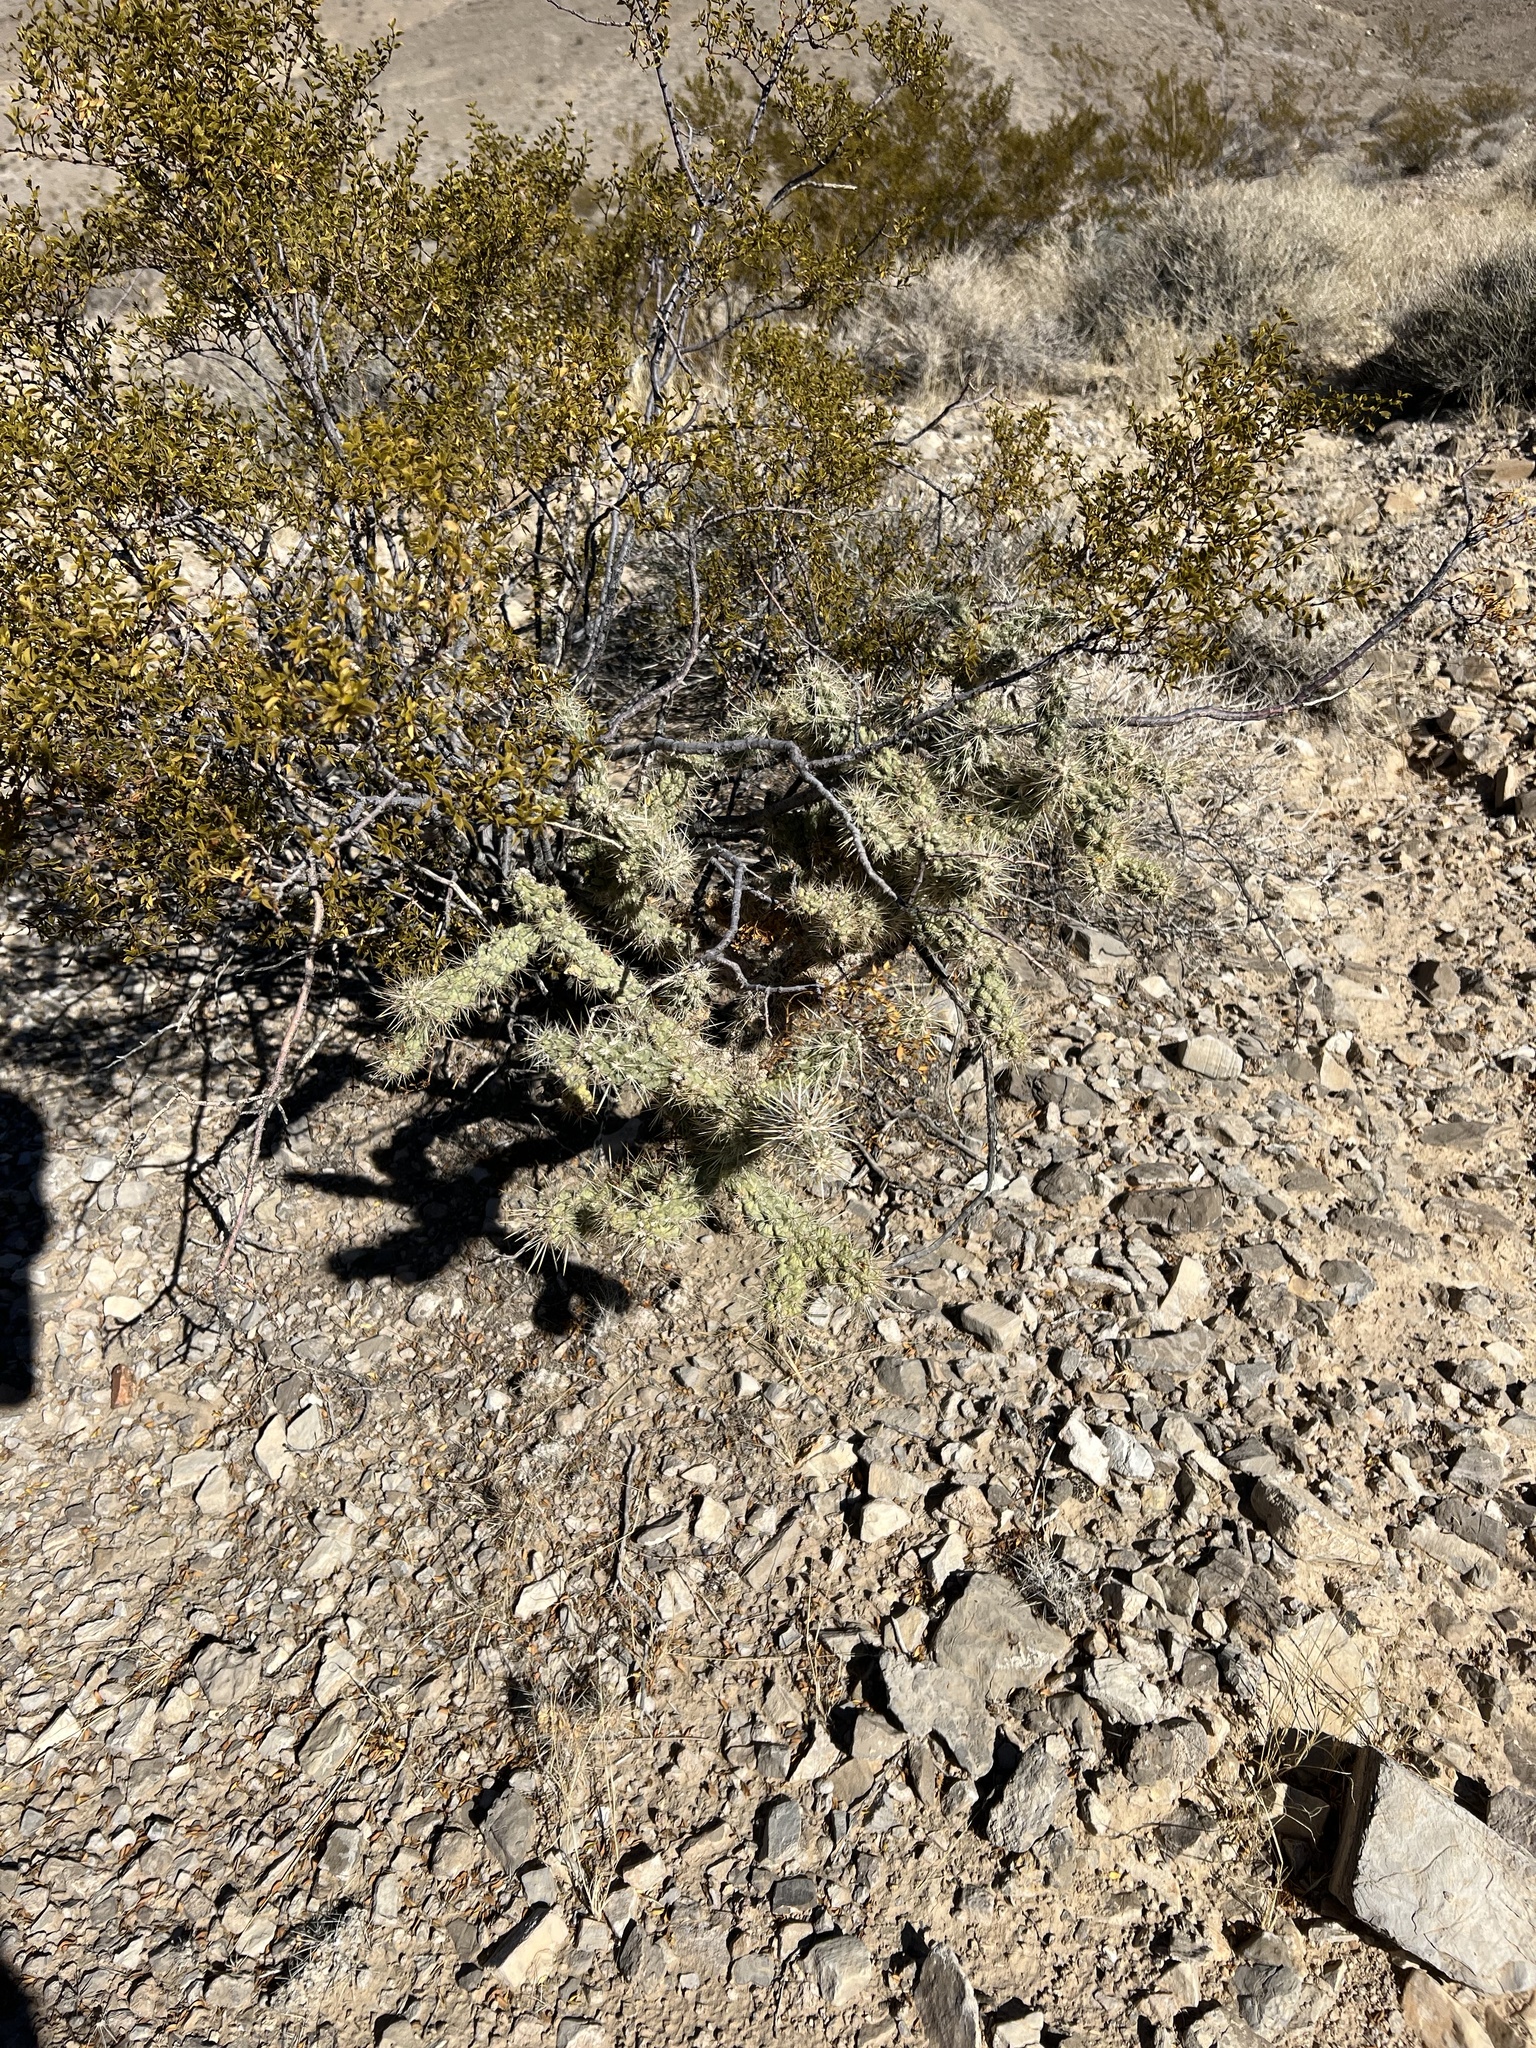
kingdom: Plantae
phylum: Tracheophyta
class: Magnoliopsida
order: Caryophyllales
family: Cactaceae
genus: Cylindropuntia
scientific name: Cylindropuntia echinocarpa
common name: Ground cholla
